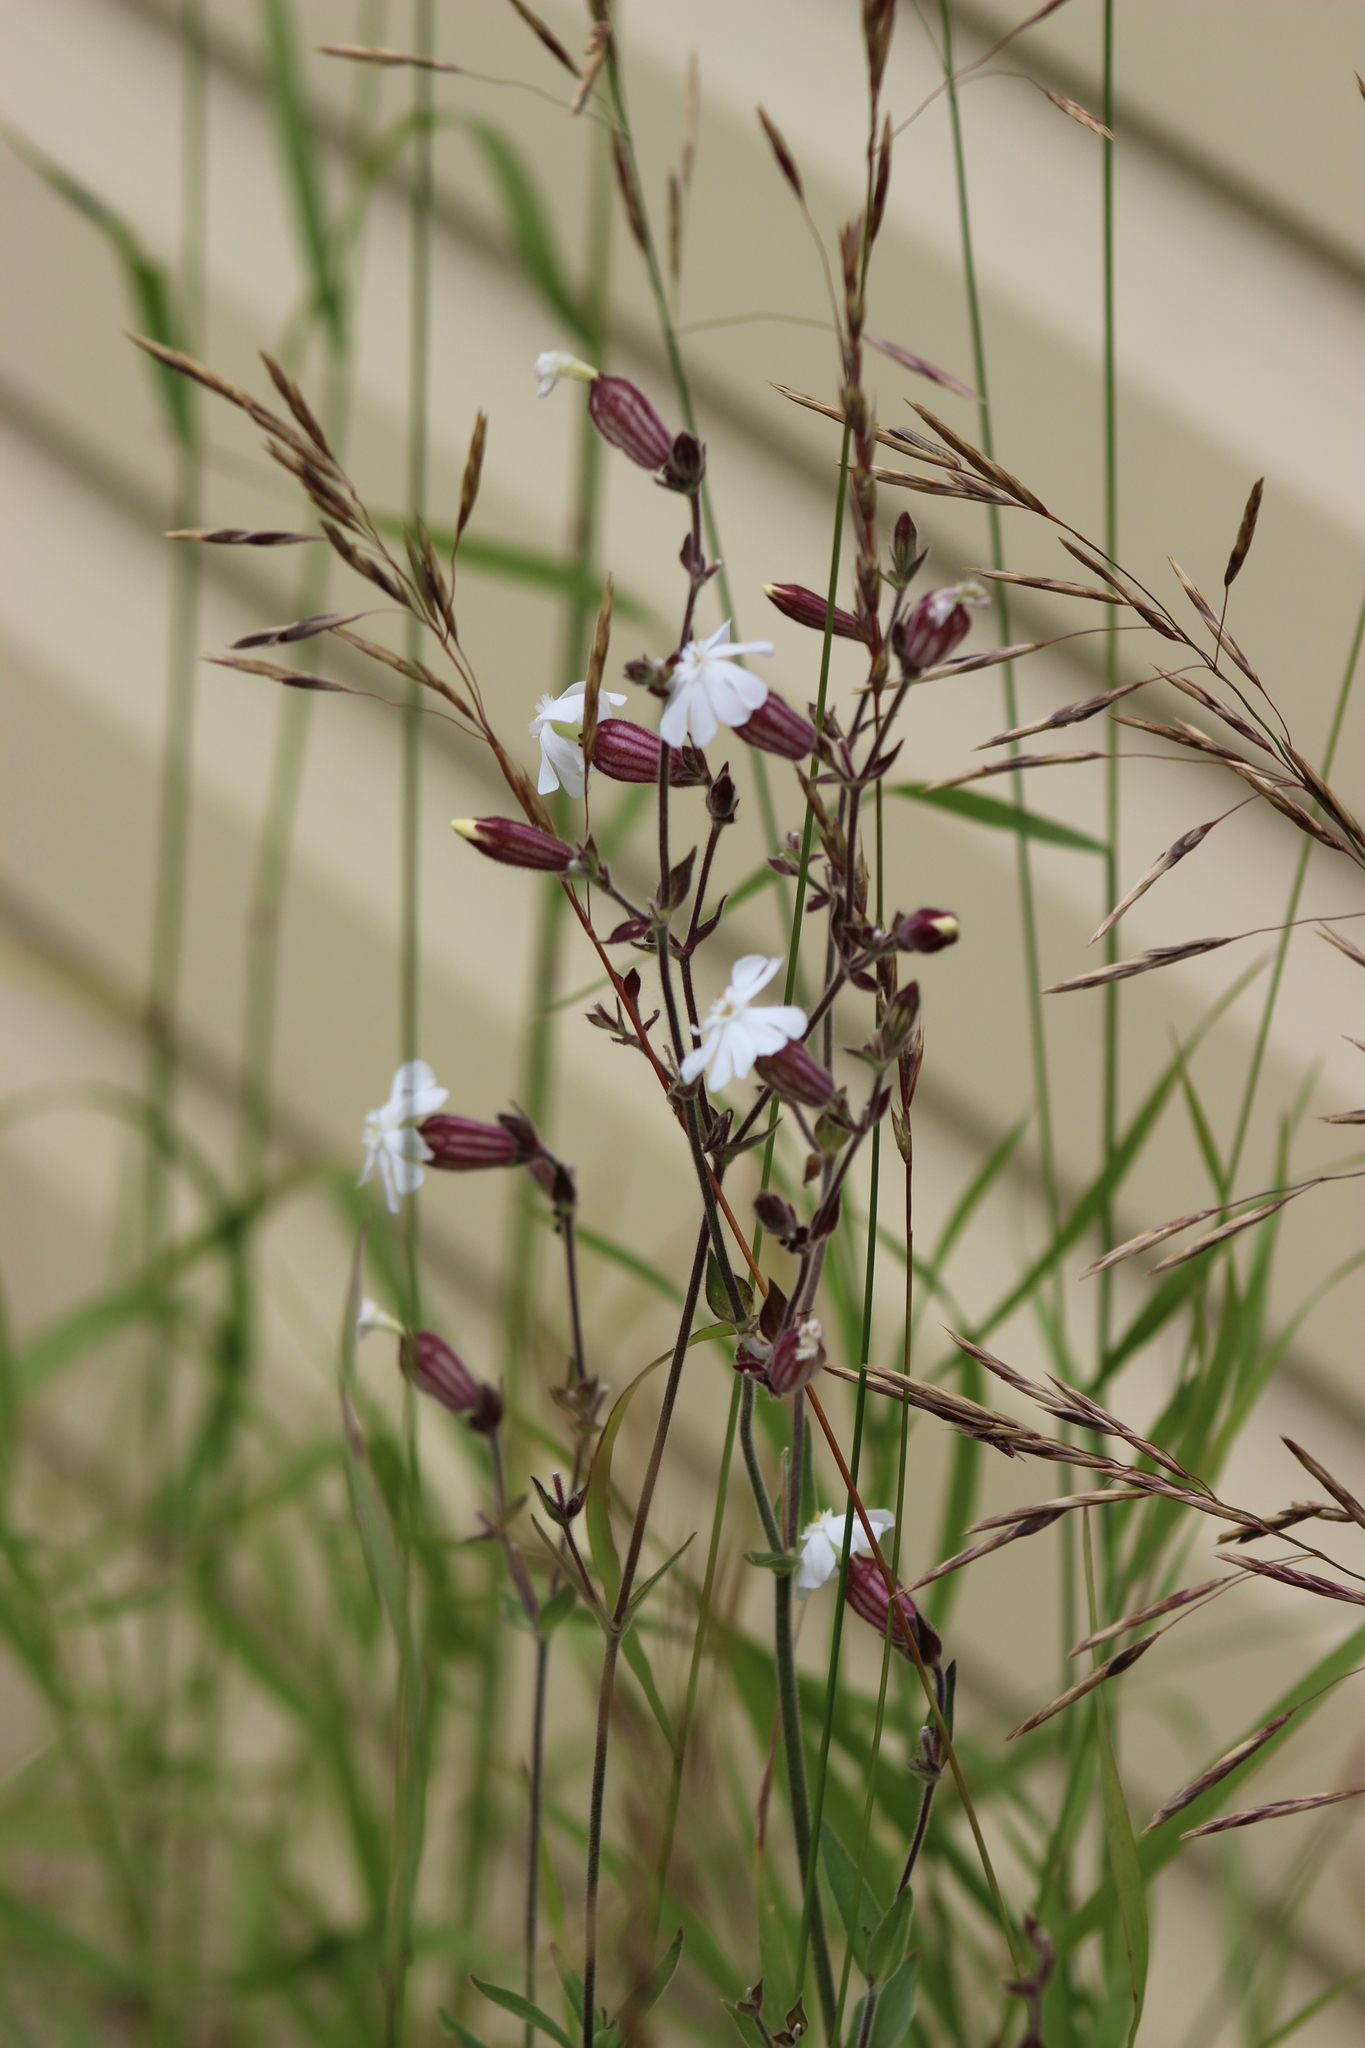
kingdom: Plantae
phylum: Tracheophyta
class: Magnoliopsida
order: Caryophyllales
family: Caryophyllaceae
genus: Silene
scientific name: Silene latifolia
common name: White campion
